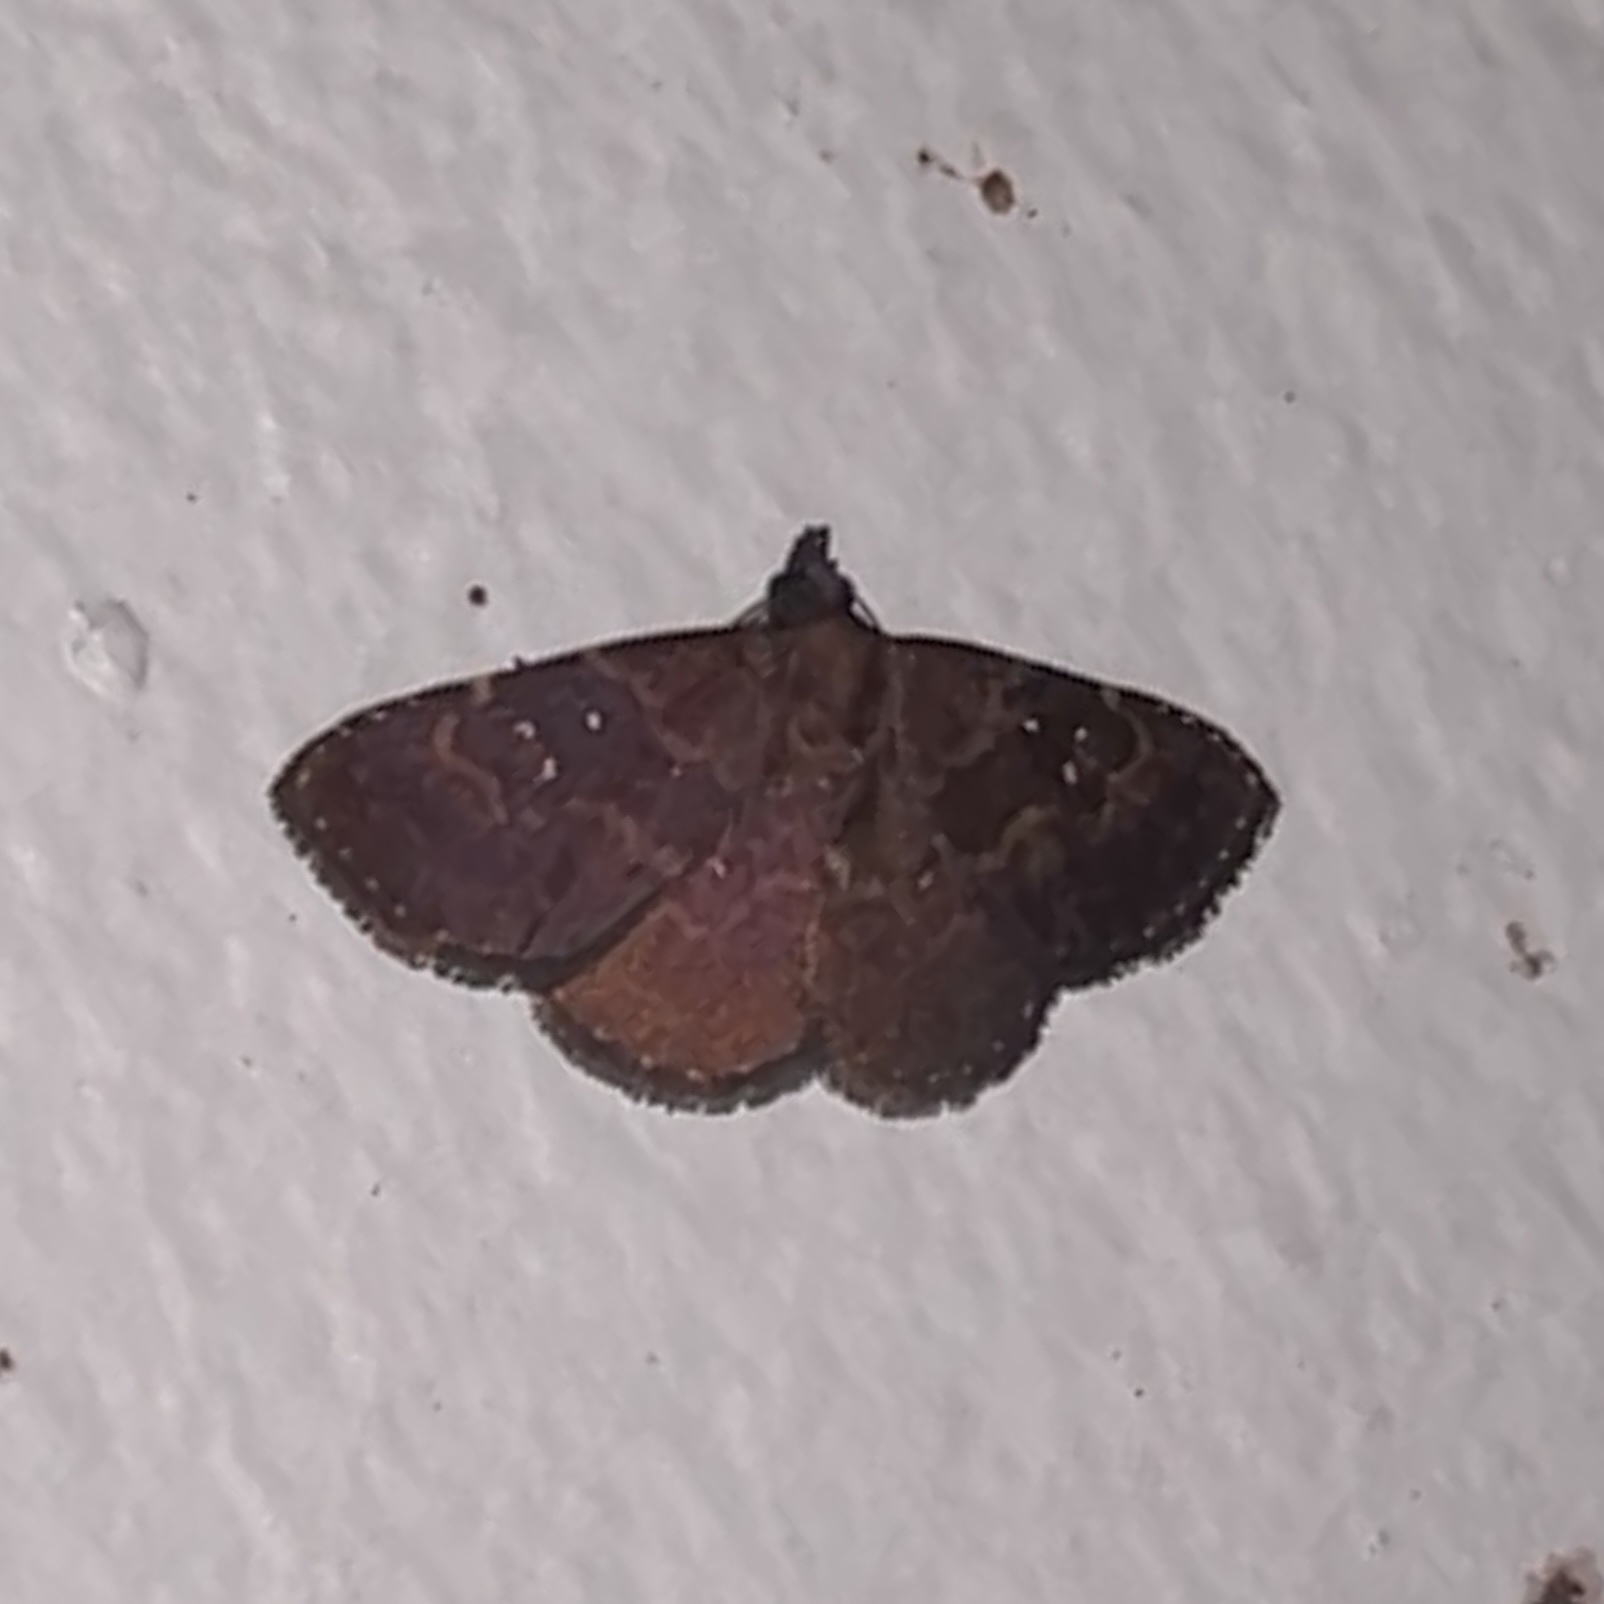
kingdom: Animalia
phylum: Arthropoda
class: Insecta
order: Lepidoptera
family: Erebidae
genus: Ostha
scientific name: Ostha coryphata
